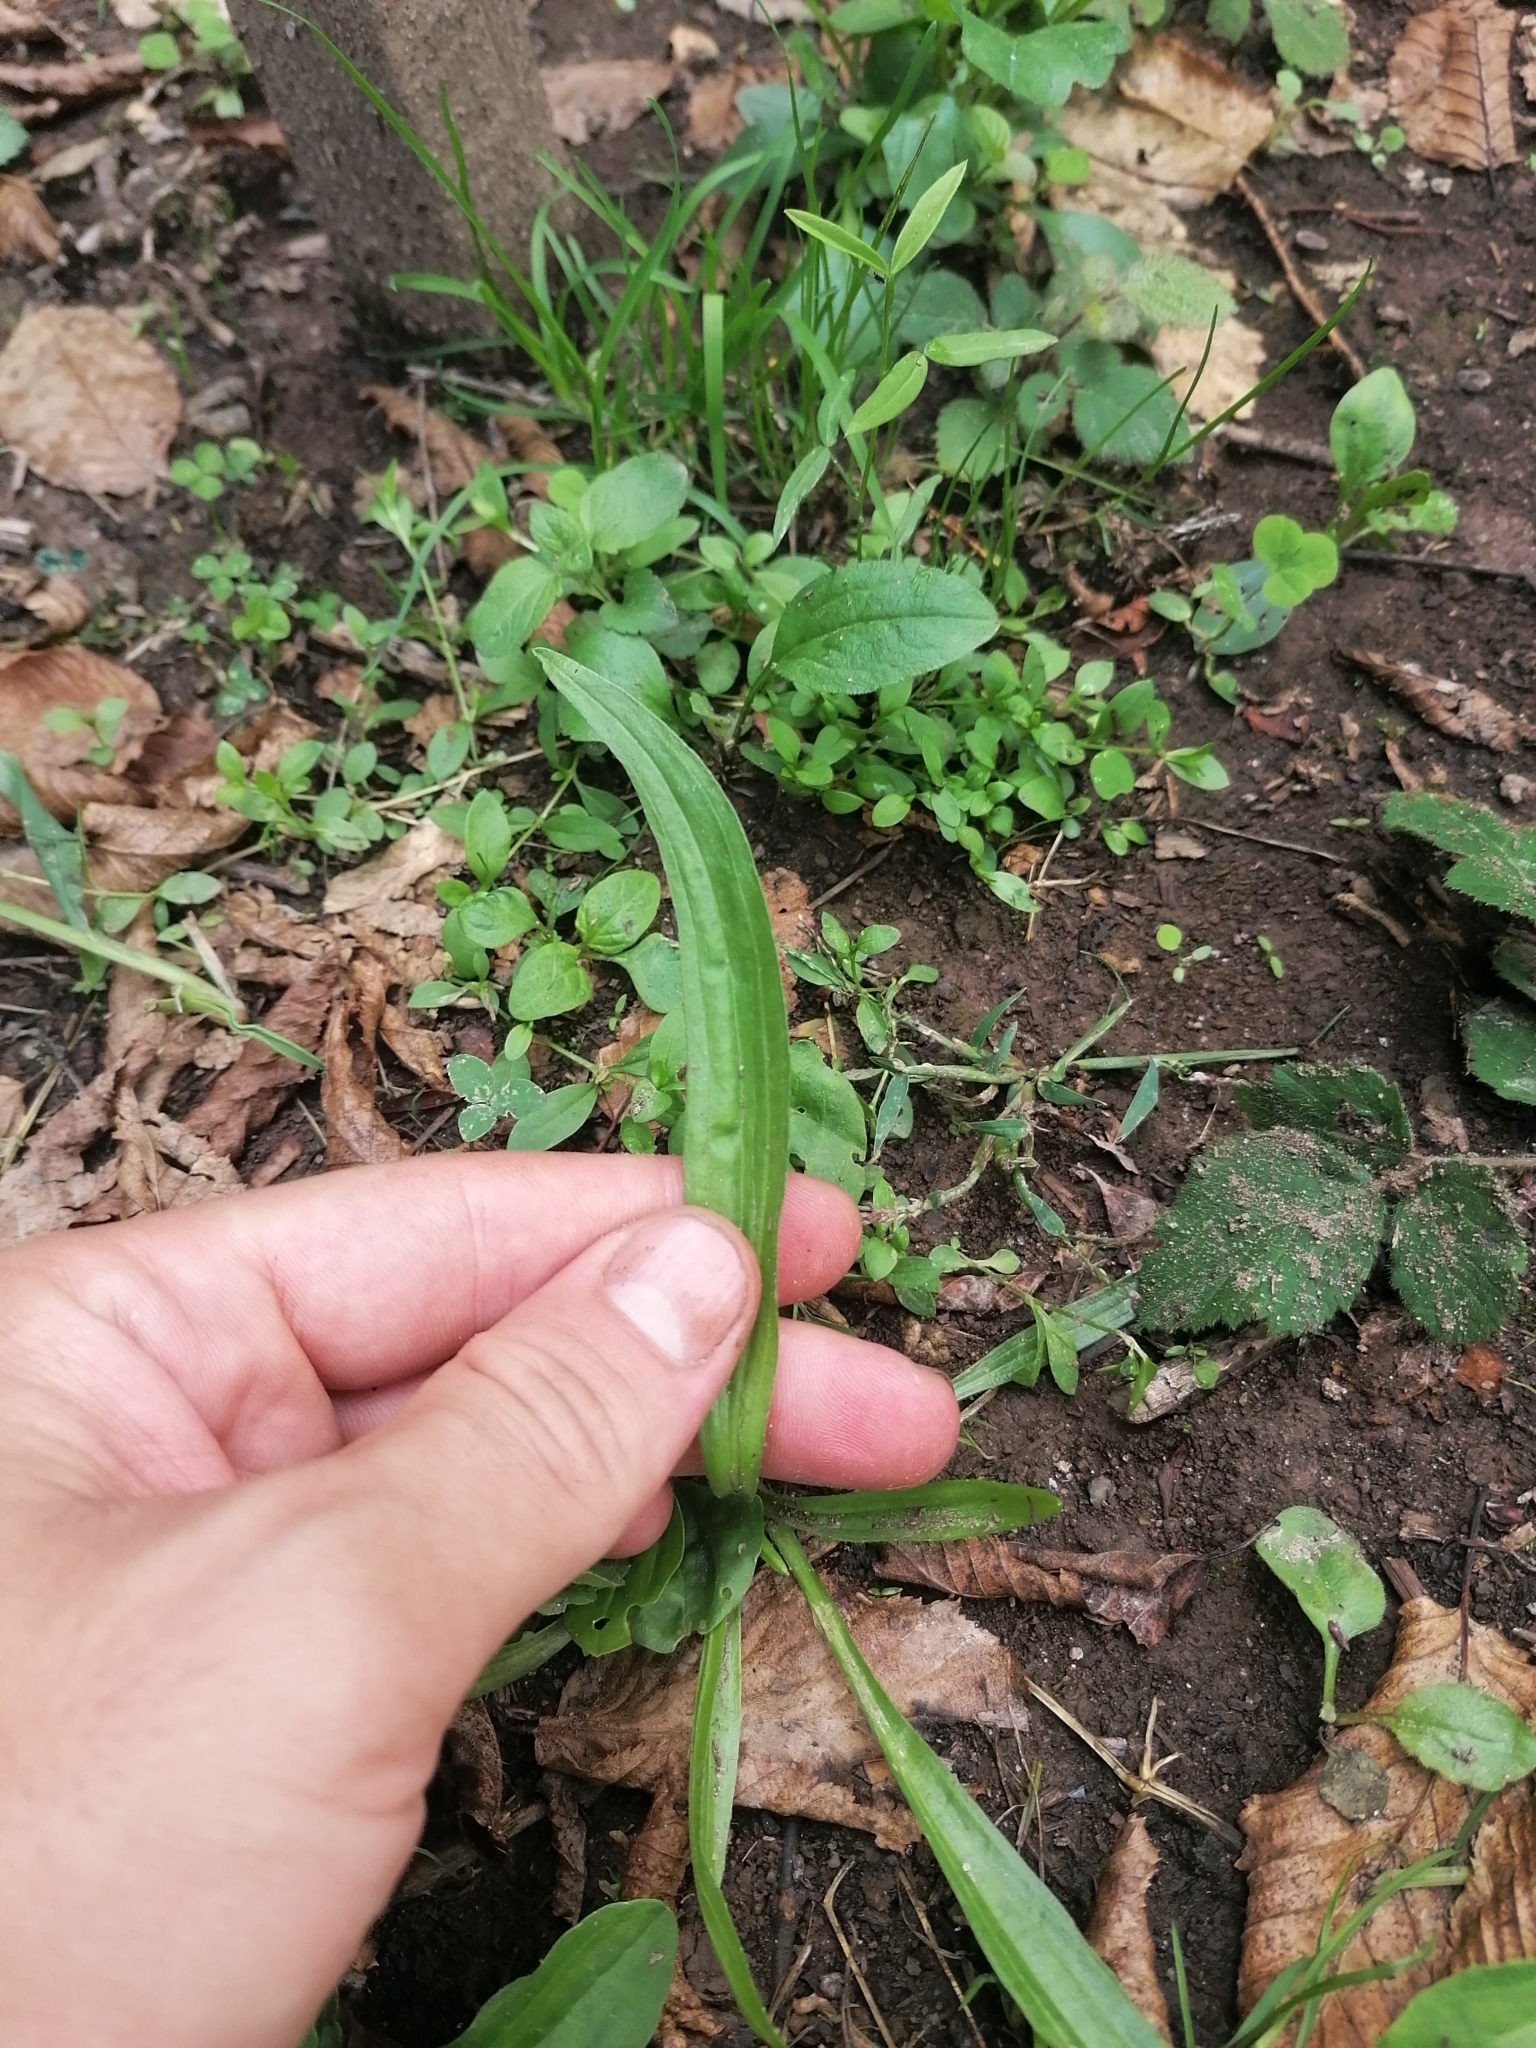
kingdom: Plantae
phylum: Tracheophyta
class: Magnoliopsida
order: Lamiales
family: Plantaginaceae
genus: Plantago
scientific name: Plantago lanceolata
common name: Ribwort plantain
